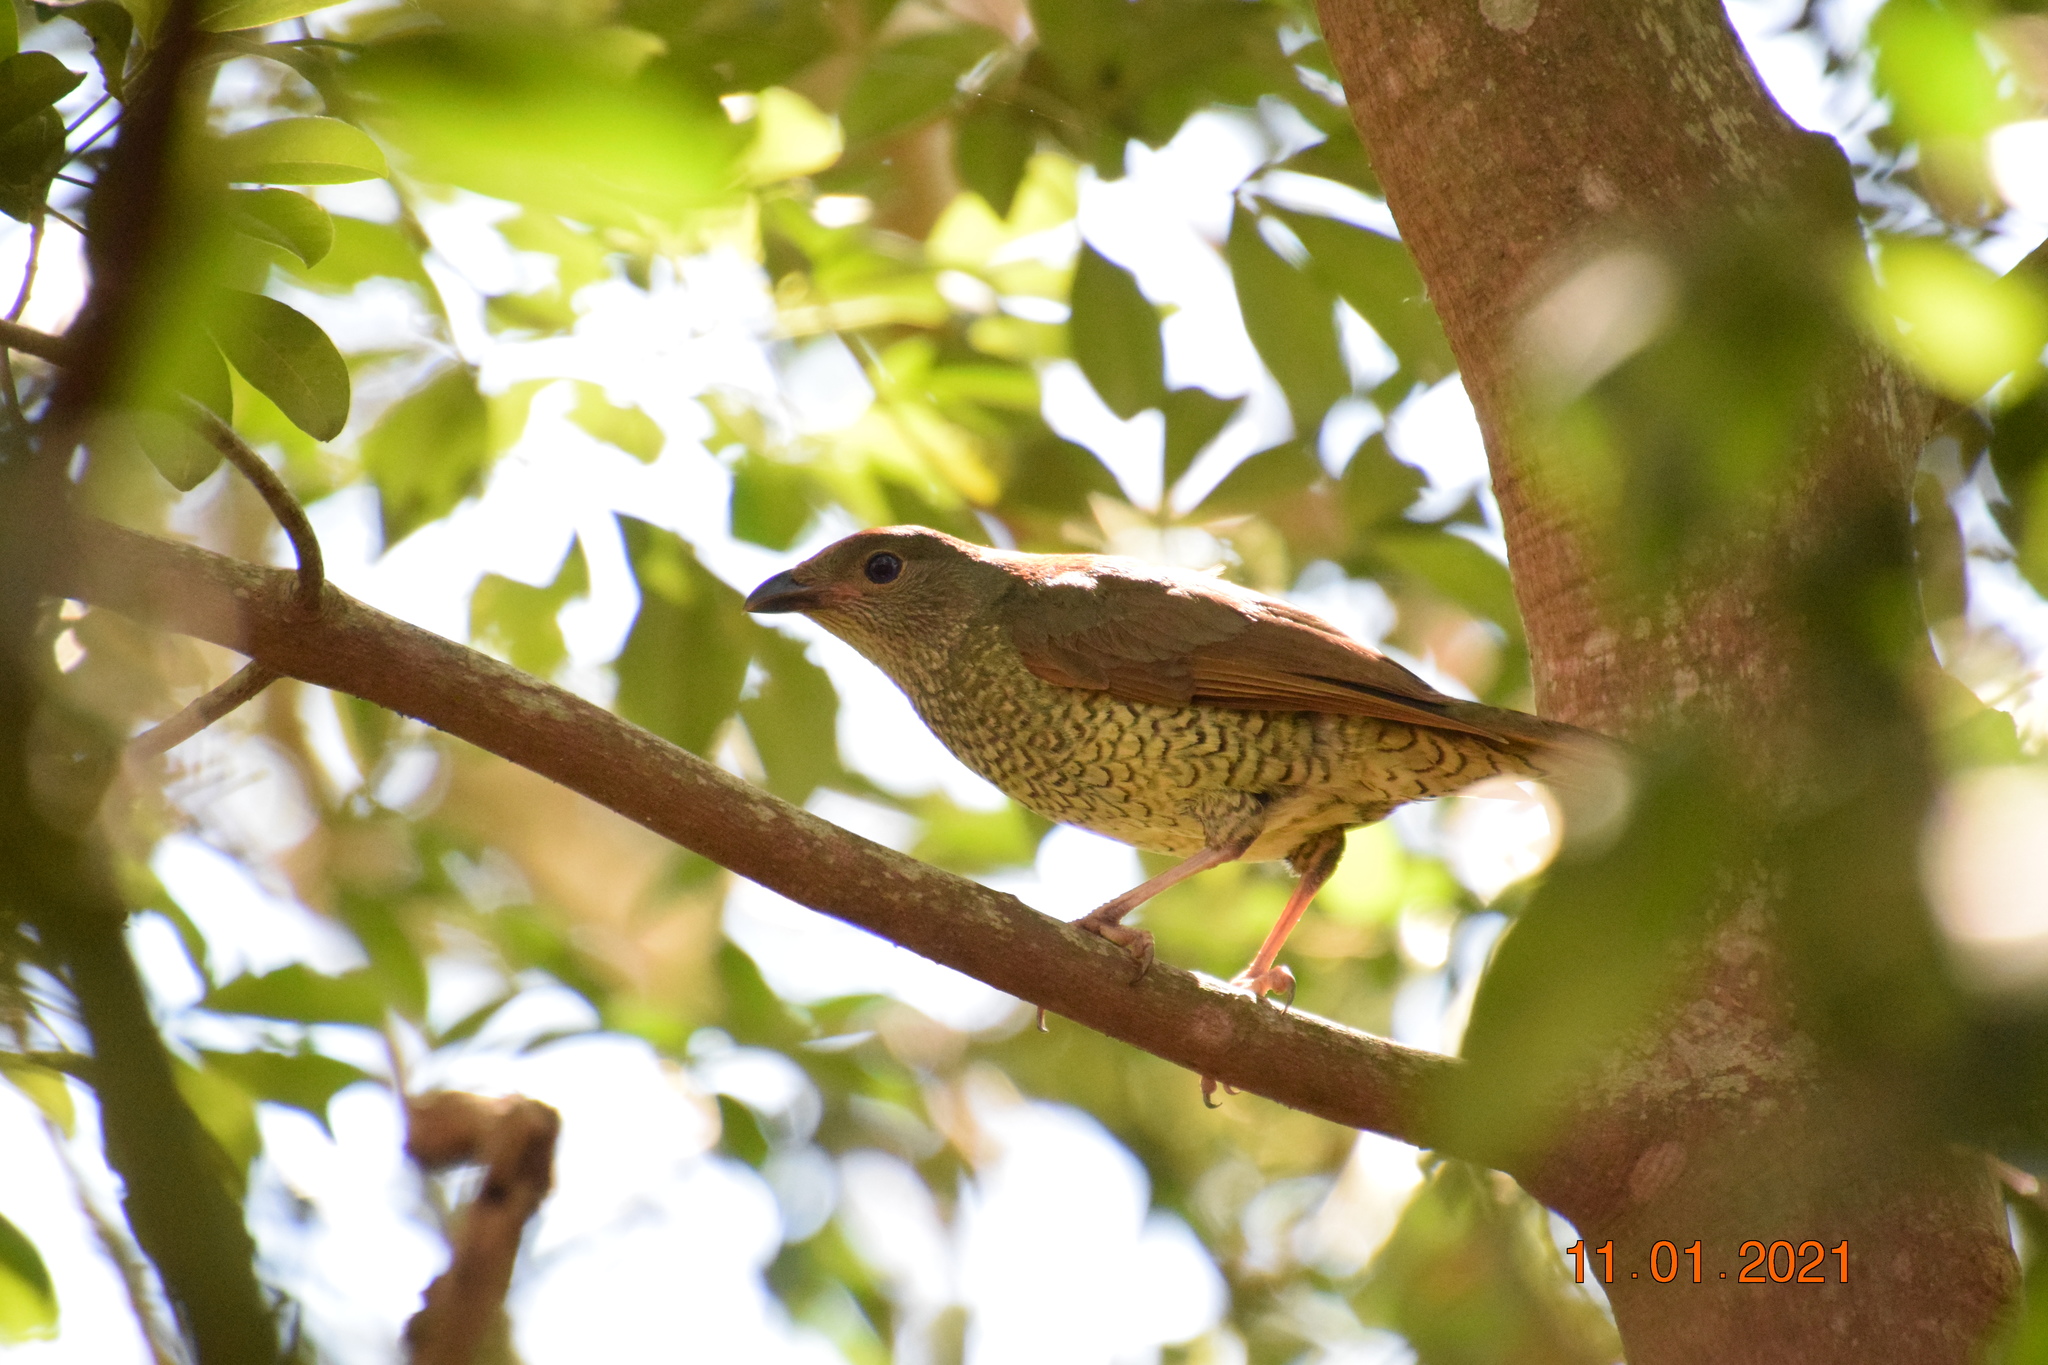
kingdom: Animalia
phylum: Chordata
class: Aves
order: Passeriformes
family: Ptilonorhynchidae
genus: Ptilonorhynchus
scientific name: Ptilonorhynchus violaceus
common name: Satin bowerbird
